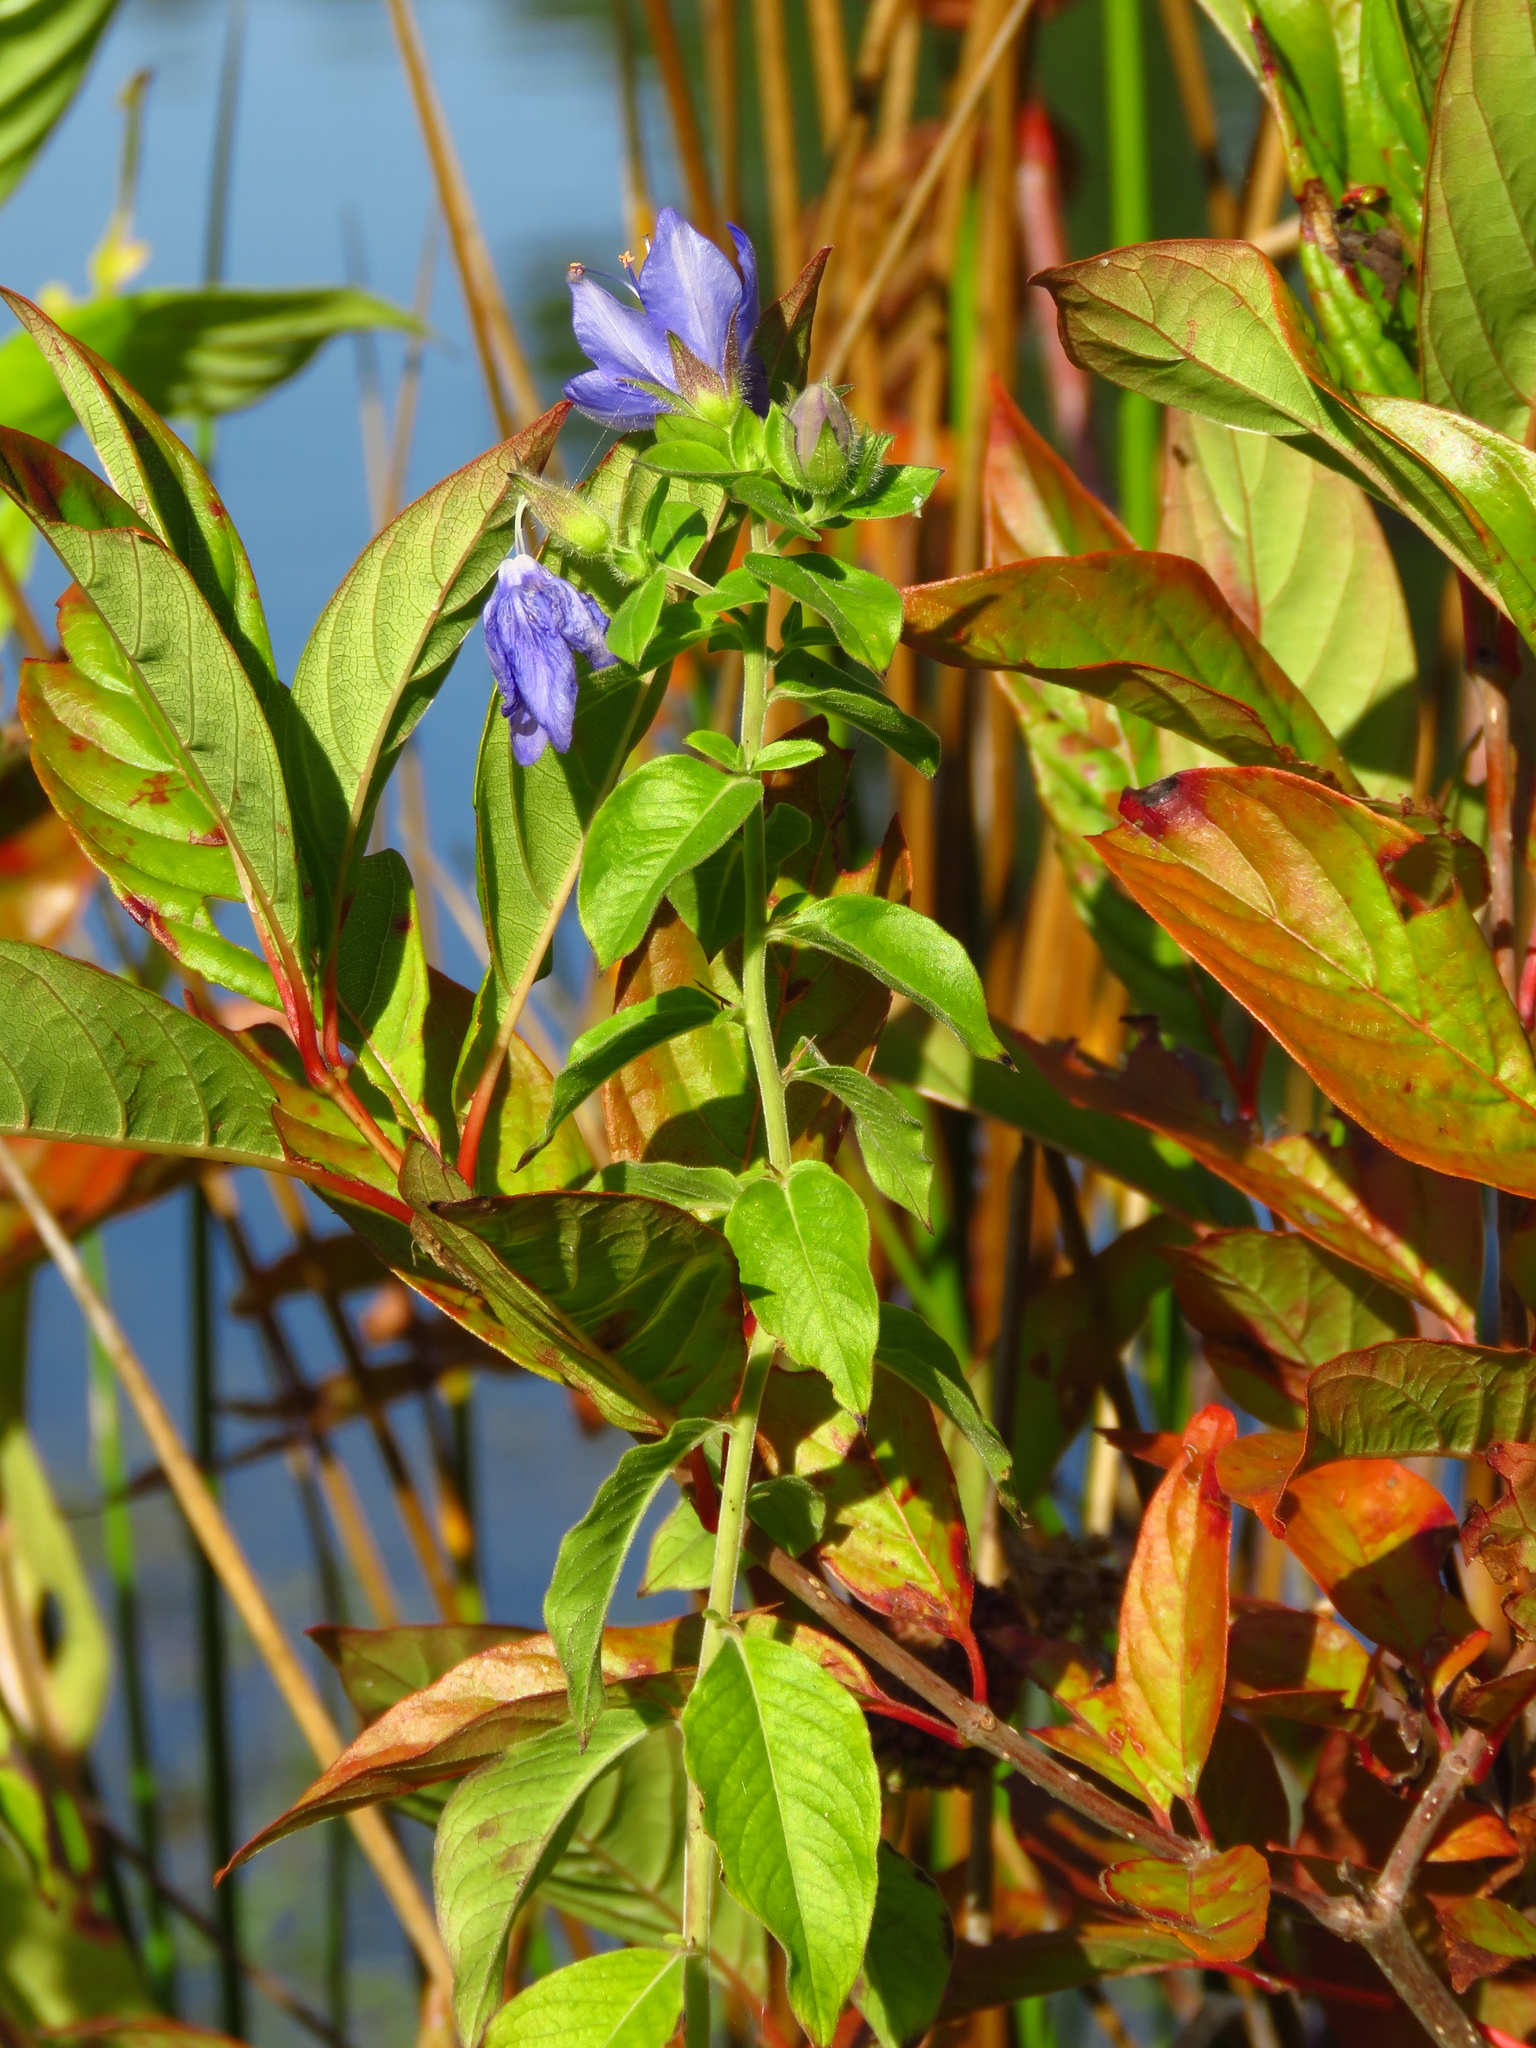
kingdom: Plantae
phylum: Tracheophyta
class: Magnoliopsida
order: Solanales
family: Hydroleaceae
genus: Hydrolea
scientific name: Hydrolea ovata
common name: Ovate false fiddleleaf
